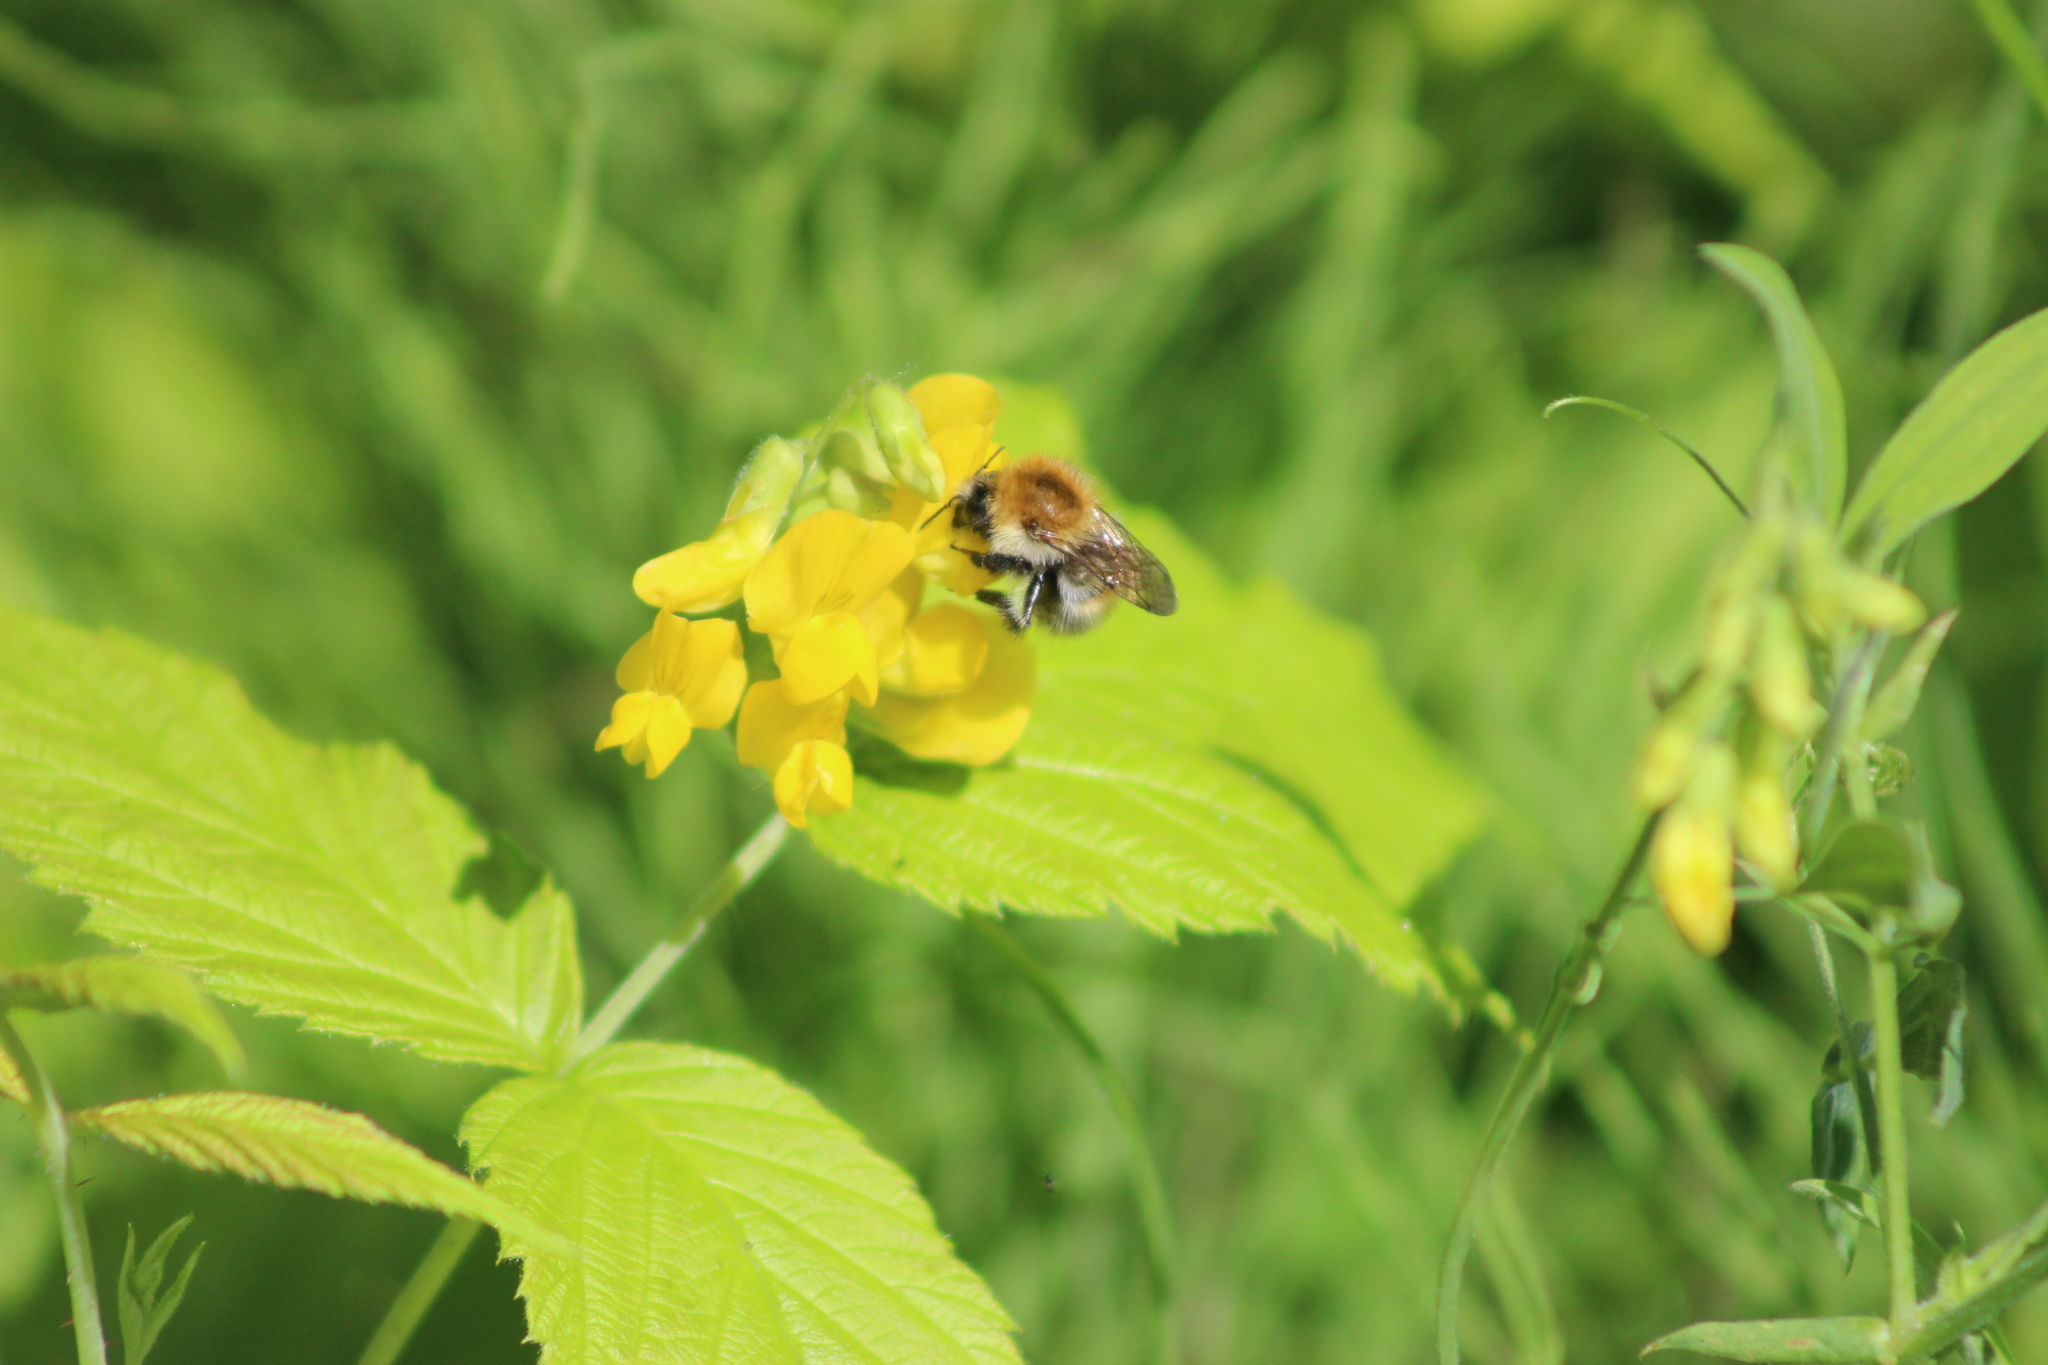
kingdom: Animalia
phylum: Arthropoda
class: Insecta
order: Hymenoptera
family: Apidae
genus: Bombus
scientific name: Bombus pascuorum
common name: Common carder bee
